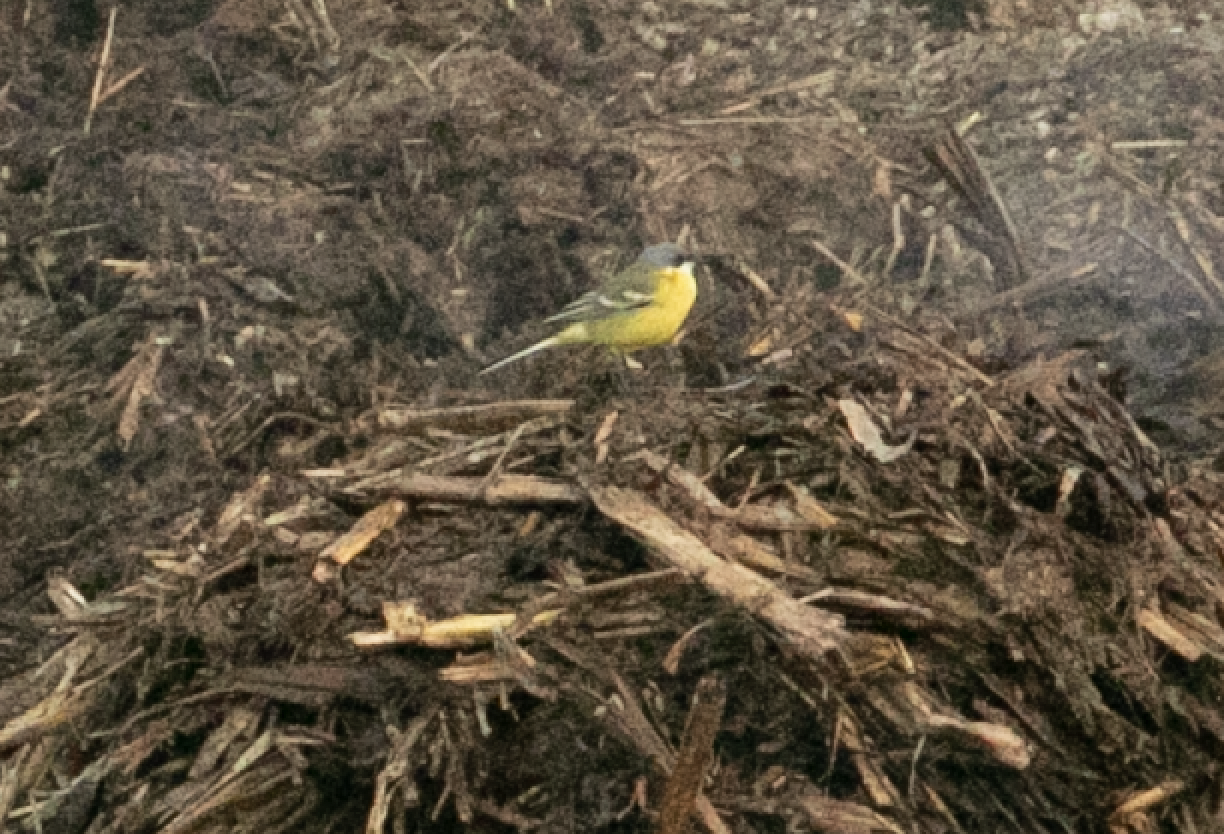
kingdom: Animalia
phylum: Chordata
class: Aves
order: Passeriformes
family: Motacillidae
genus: Motacilla
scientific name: Motacilla flava
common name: Western yellow wagtail
